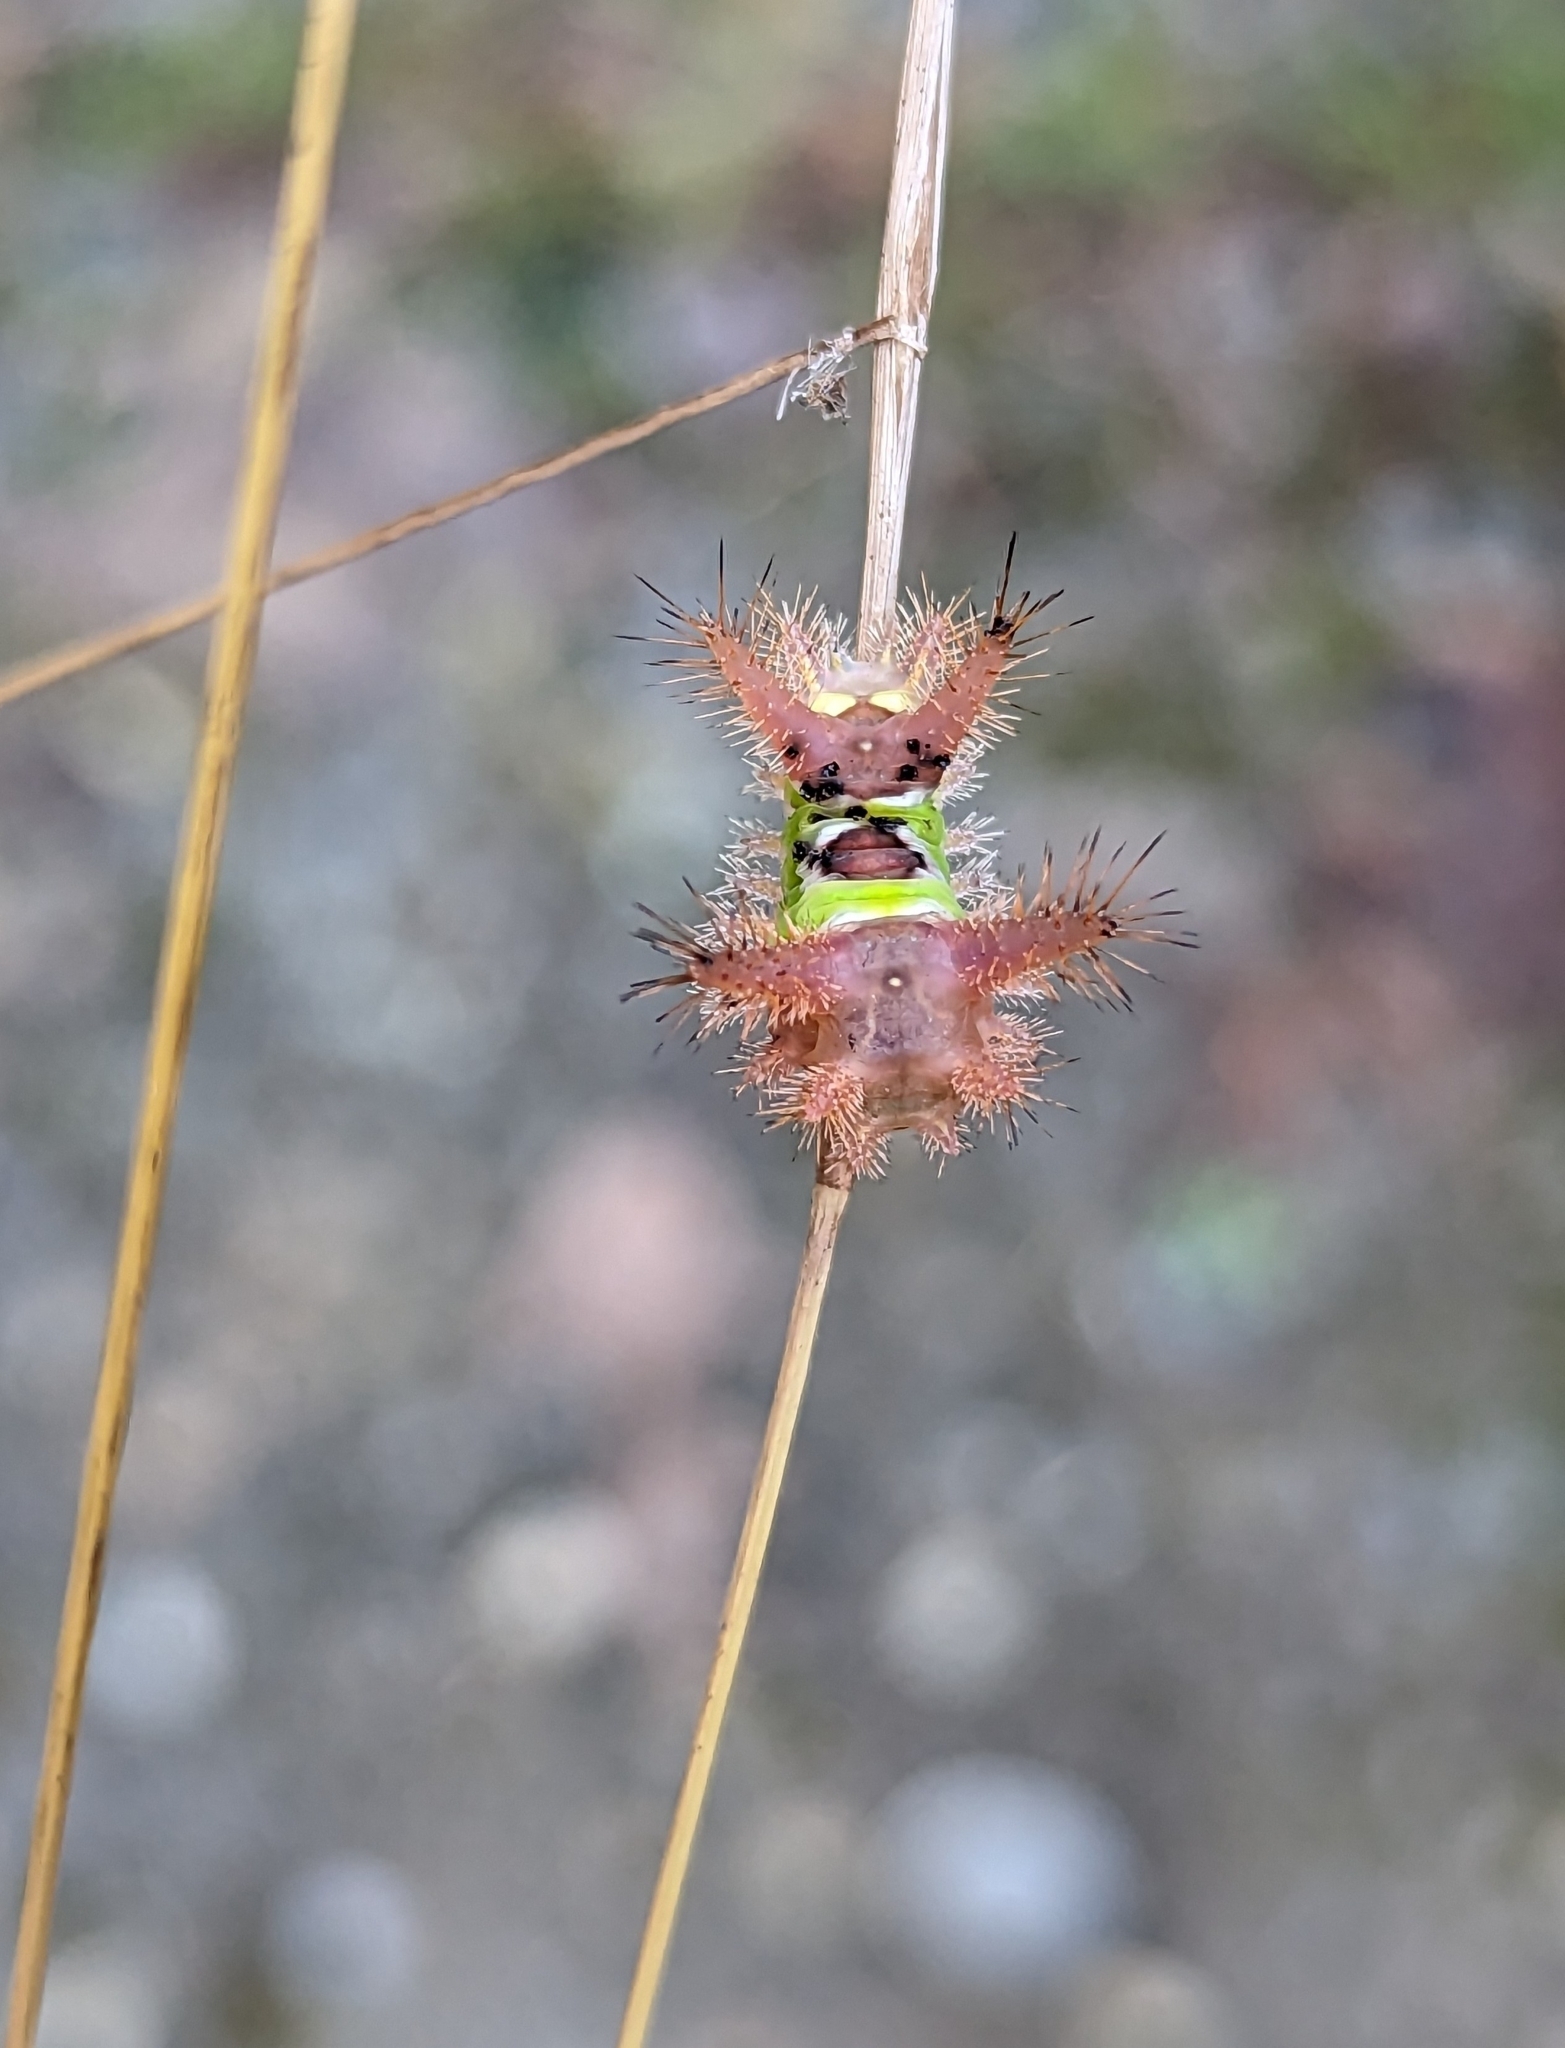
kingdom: Animalia
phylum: Arthropoda
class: Insecta
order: Lepidoptera
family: Limacodidae
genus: Acharia
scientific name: Acharia stimulea
